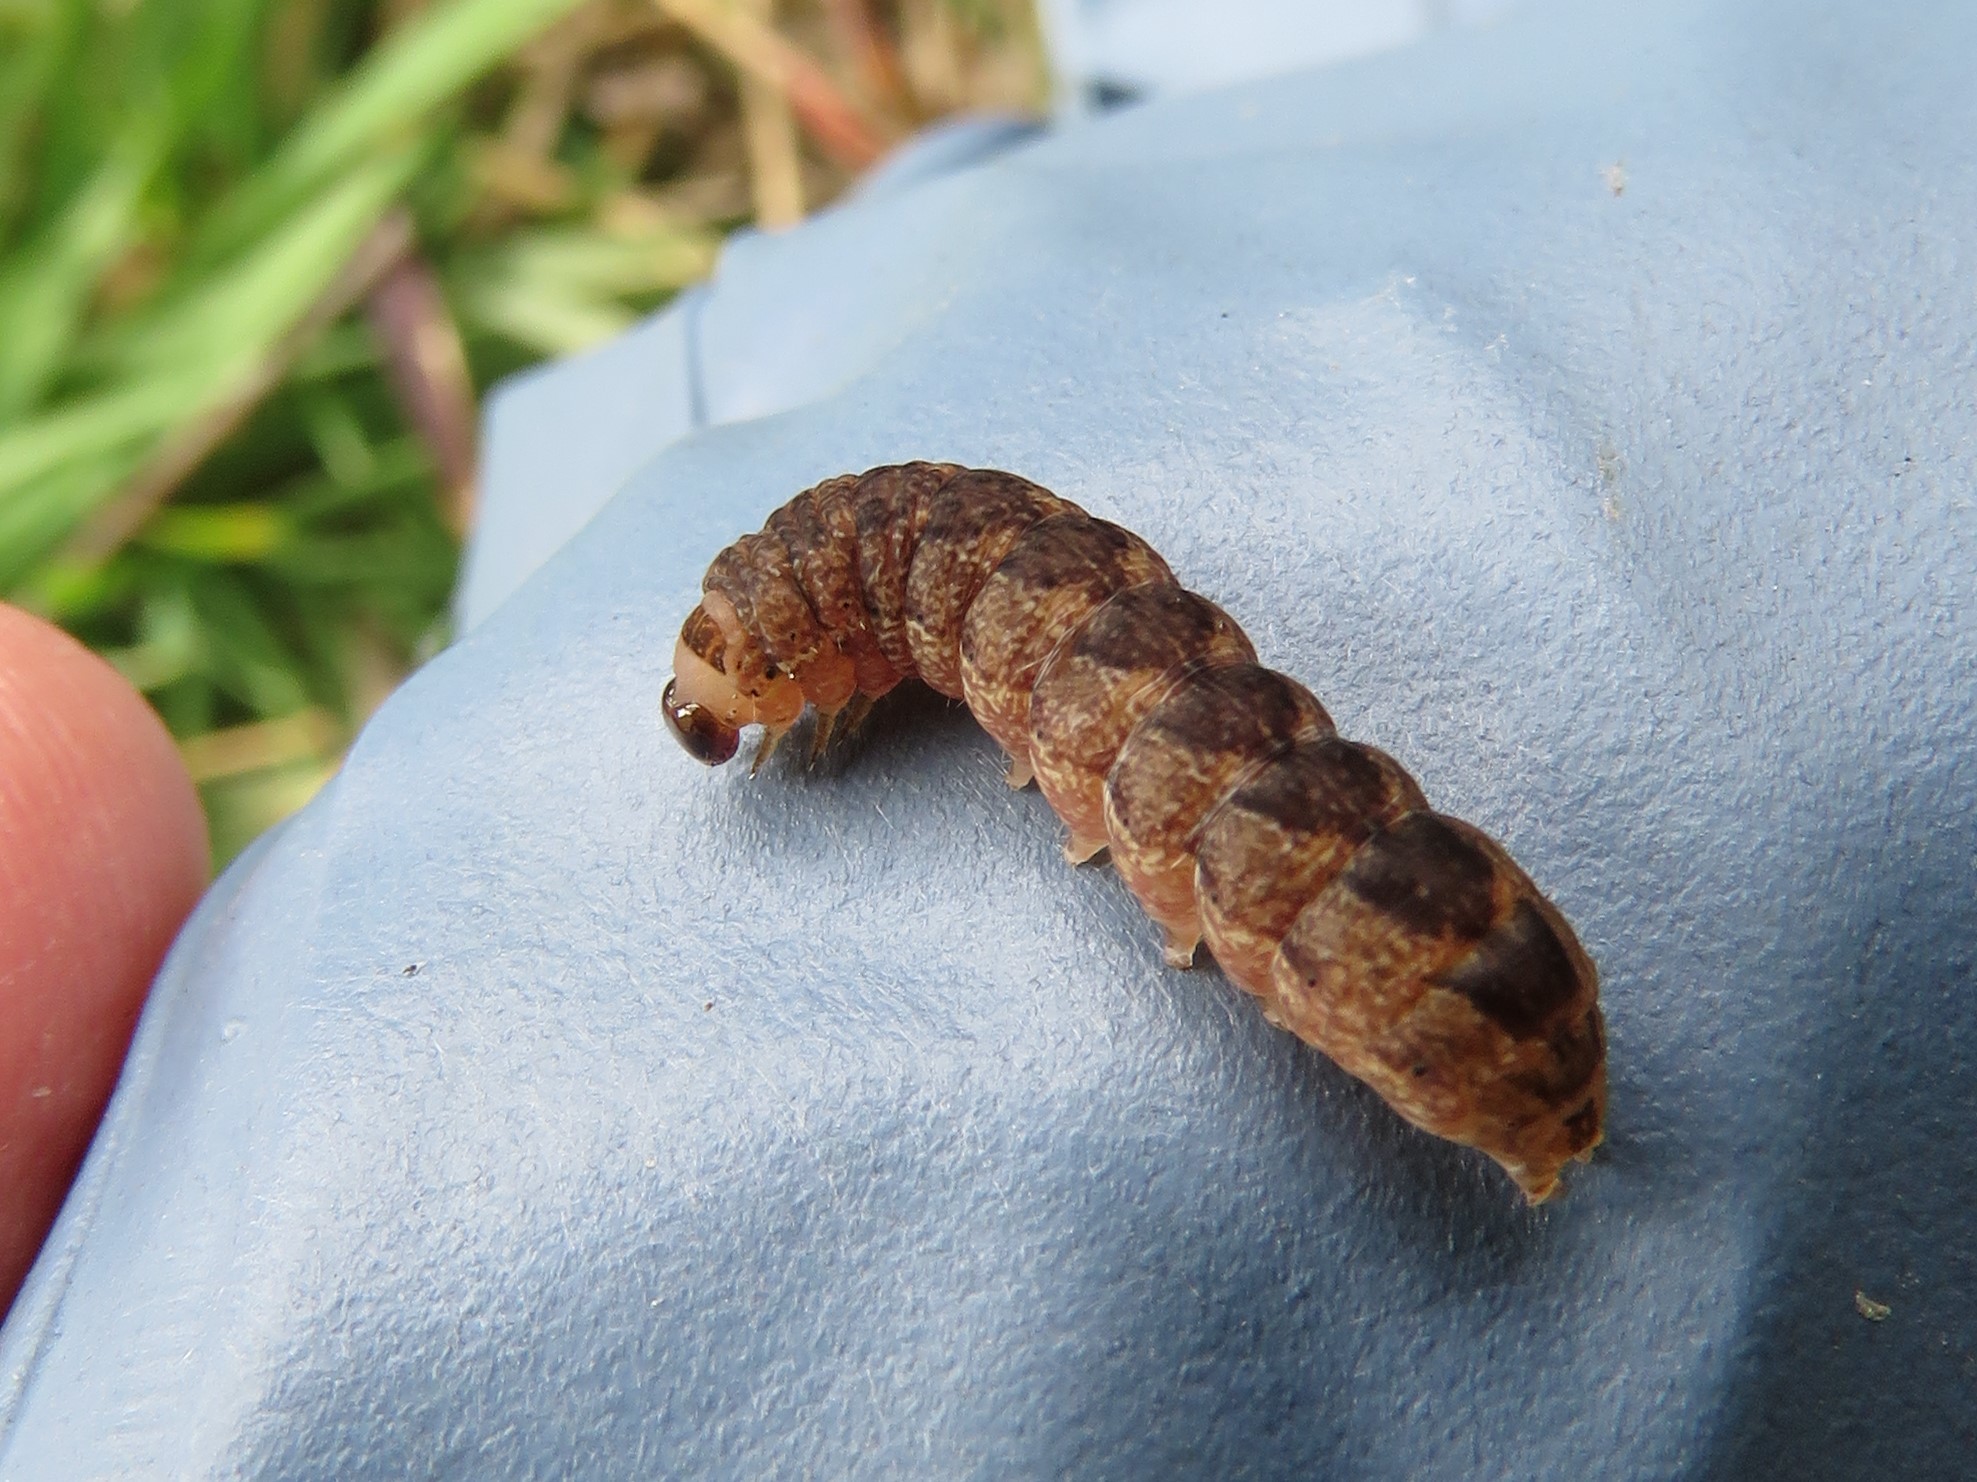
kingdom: Animalia
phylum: Arthropoda
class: Insecta
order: Lepidoptera
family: Noctuidae
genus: Agrochola
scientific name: Agrochola bicolorago
